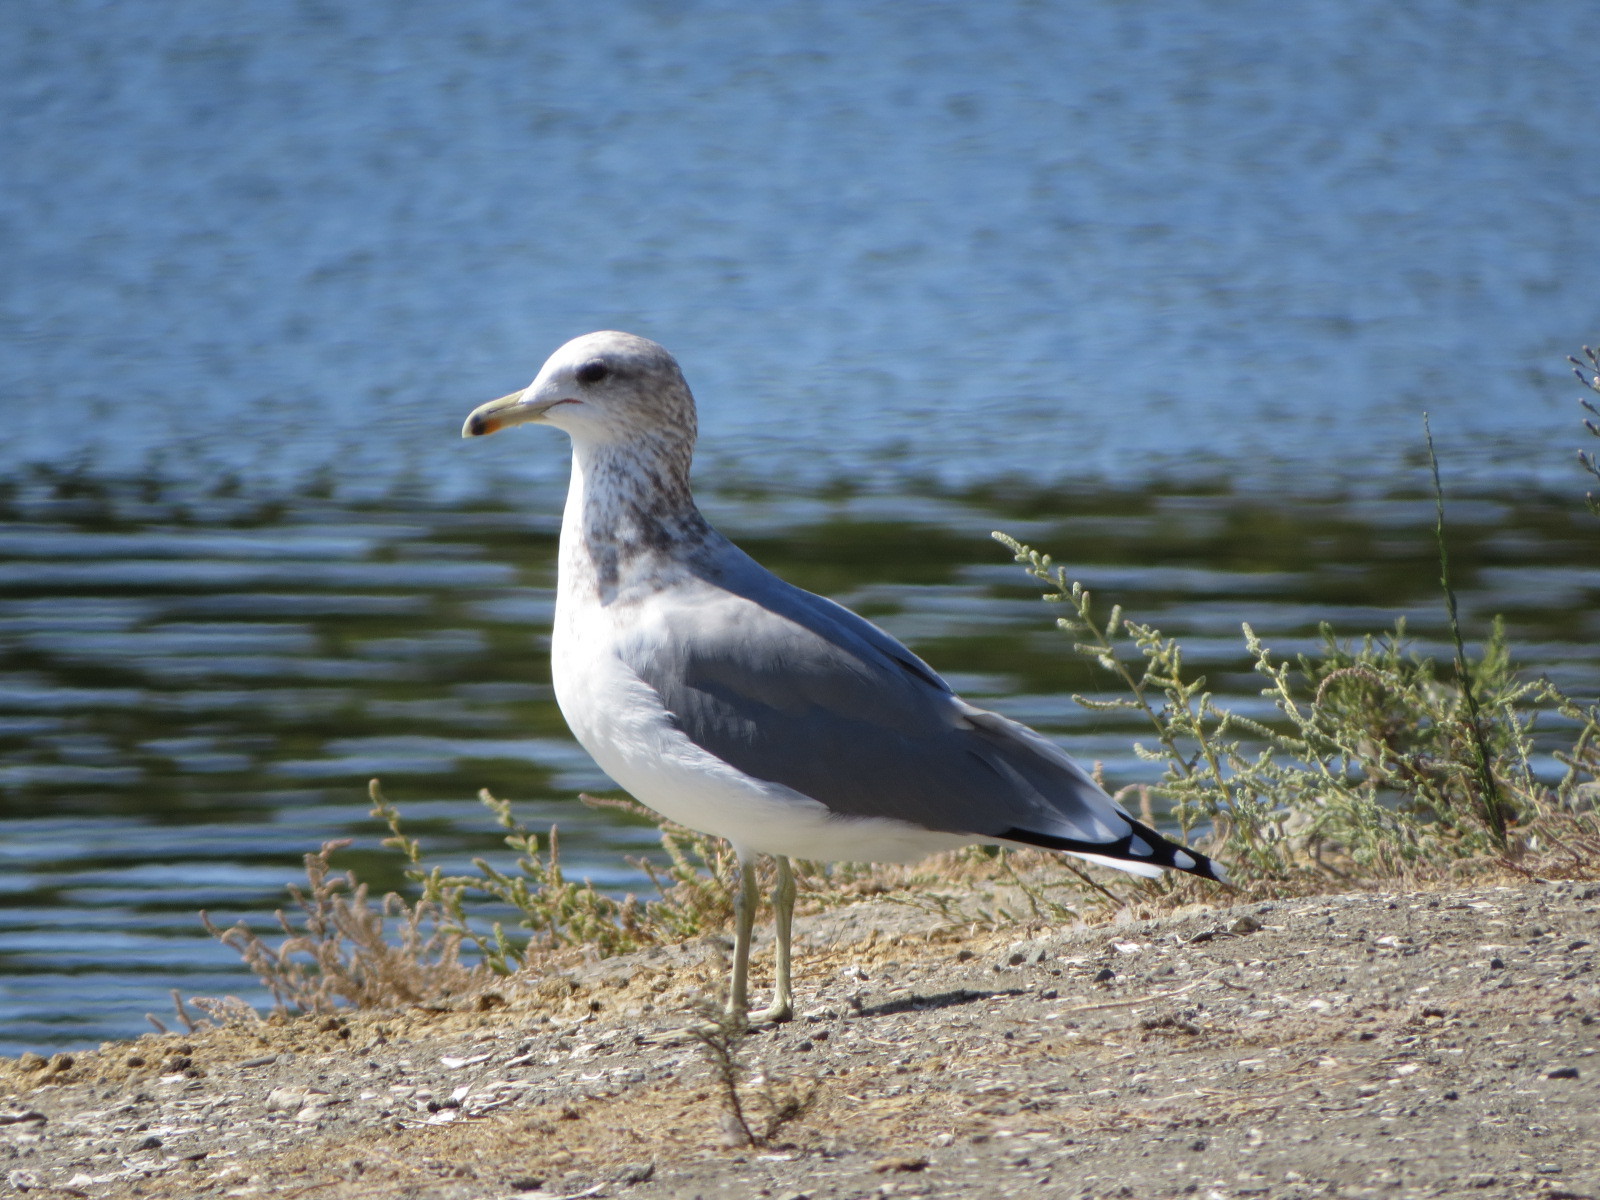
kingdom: Animalia
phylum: Chordata
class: Aves
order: Charadriiformes
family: Laridae
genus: Larus
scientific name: Larus californicus
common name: California gull
